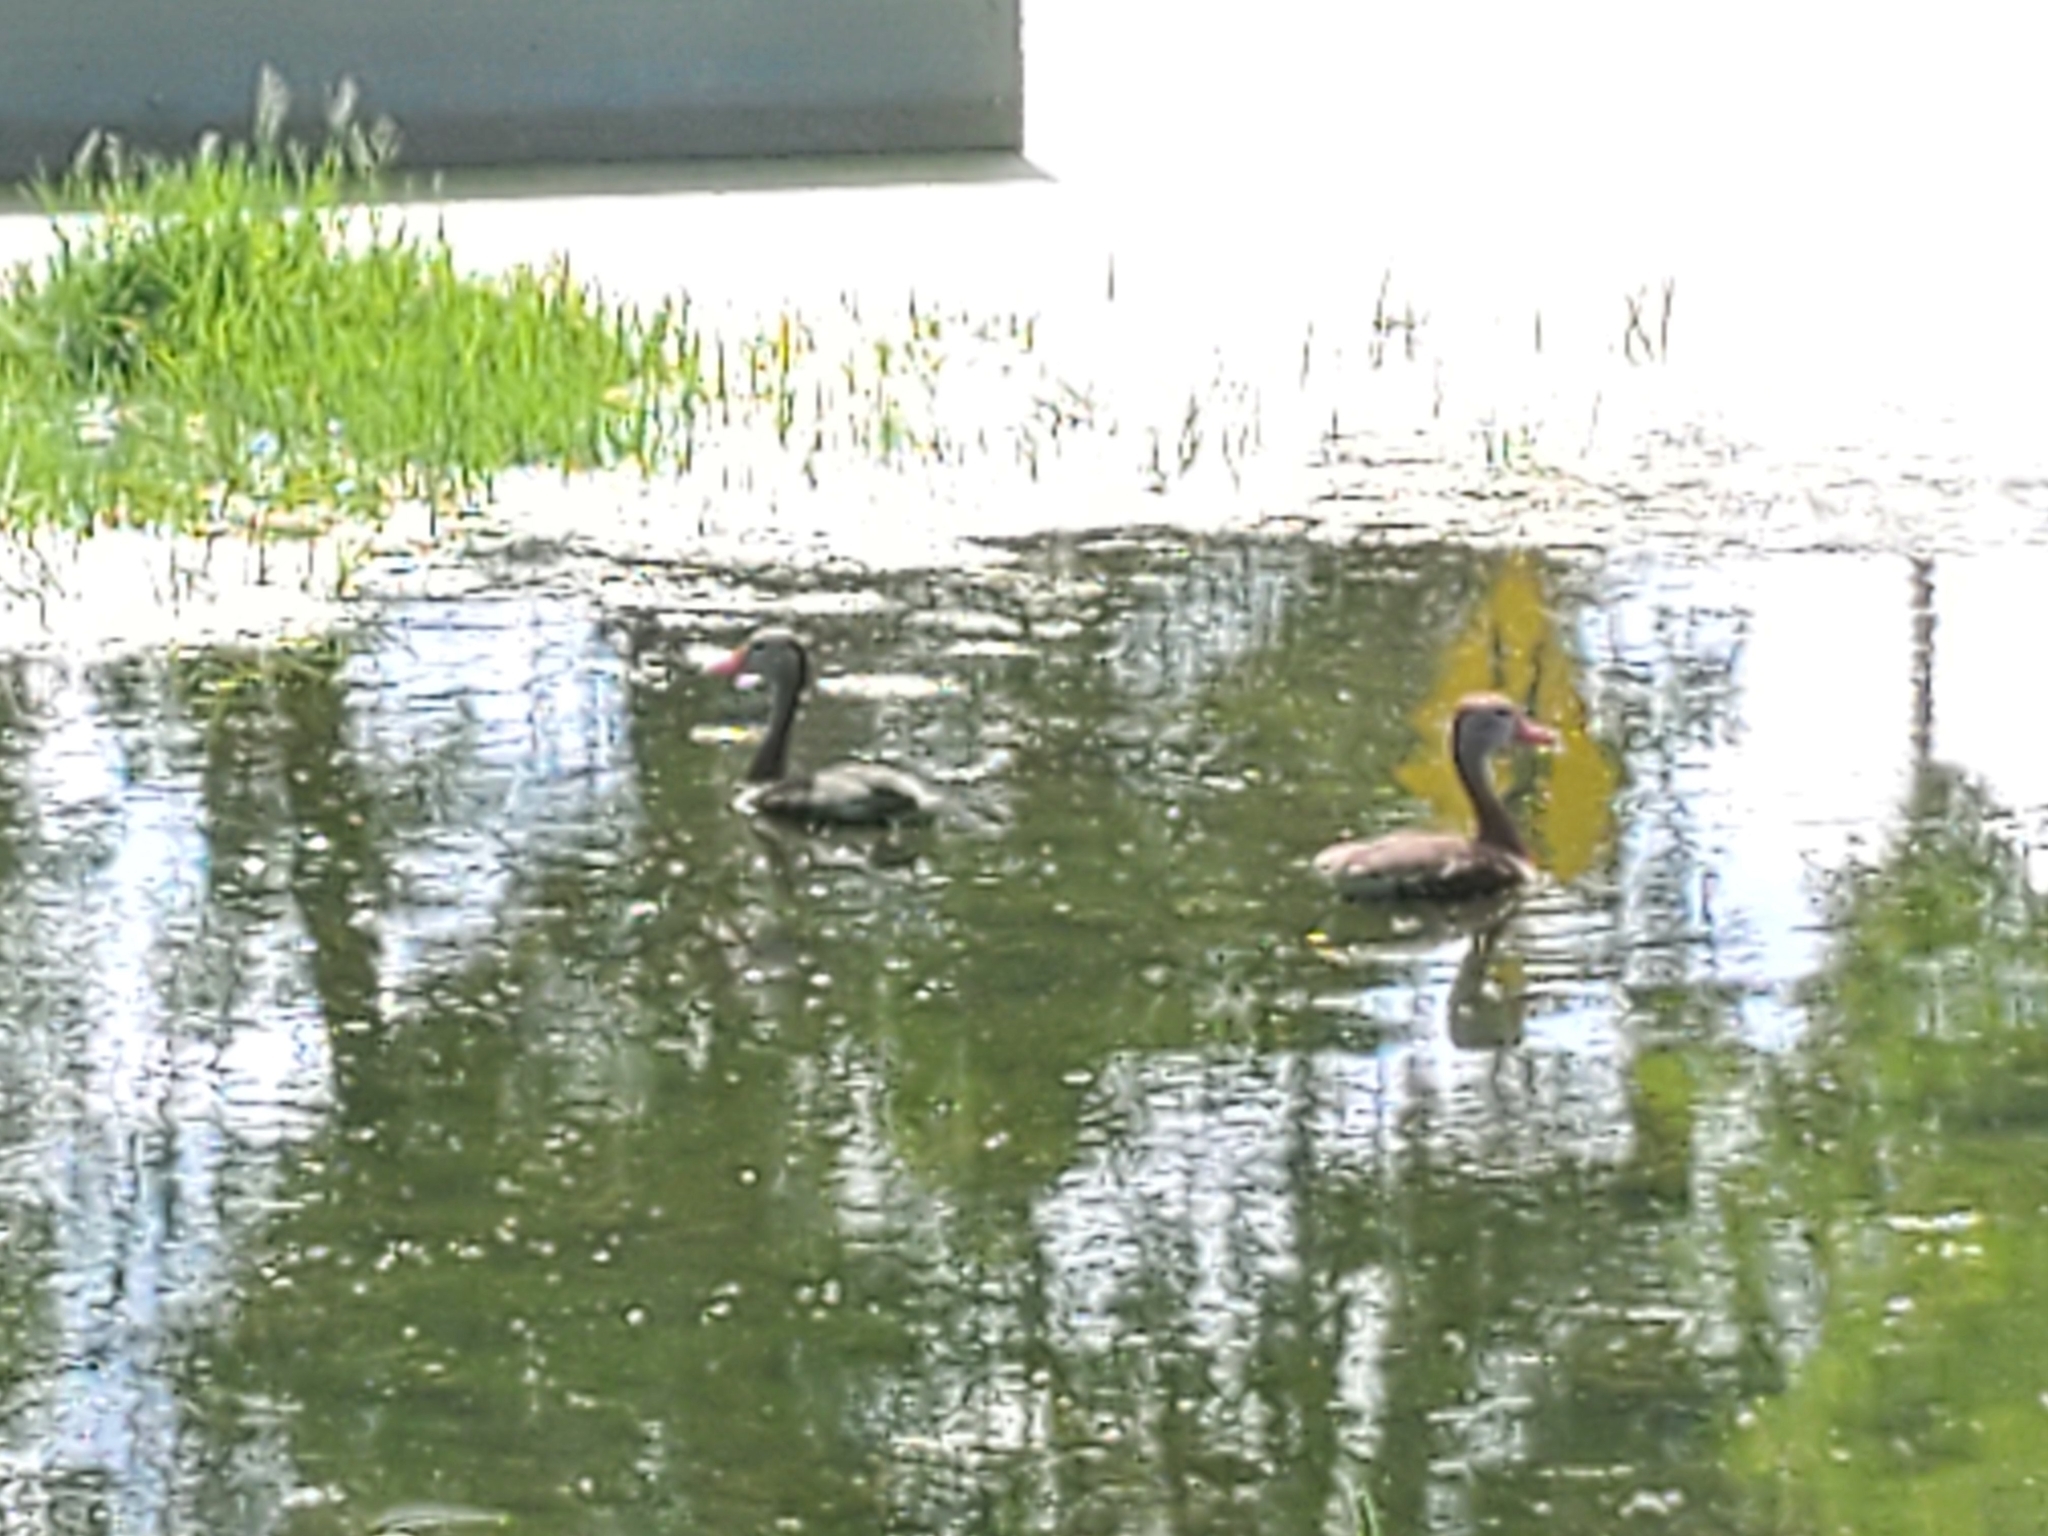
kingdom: Animalia
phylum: Chordata
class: Aves
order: Anseriformes
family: Anatidae
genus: Dendrocygna
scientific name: Dendrocygna autumnalis
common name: Black-bellied whistling duck
